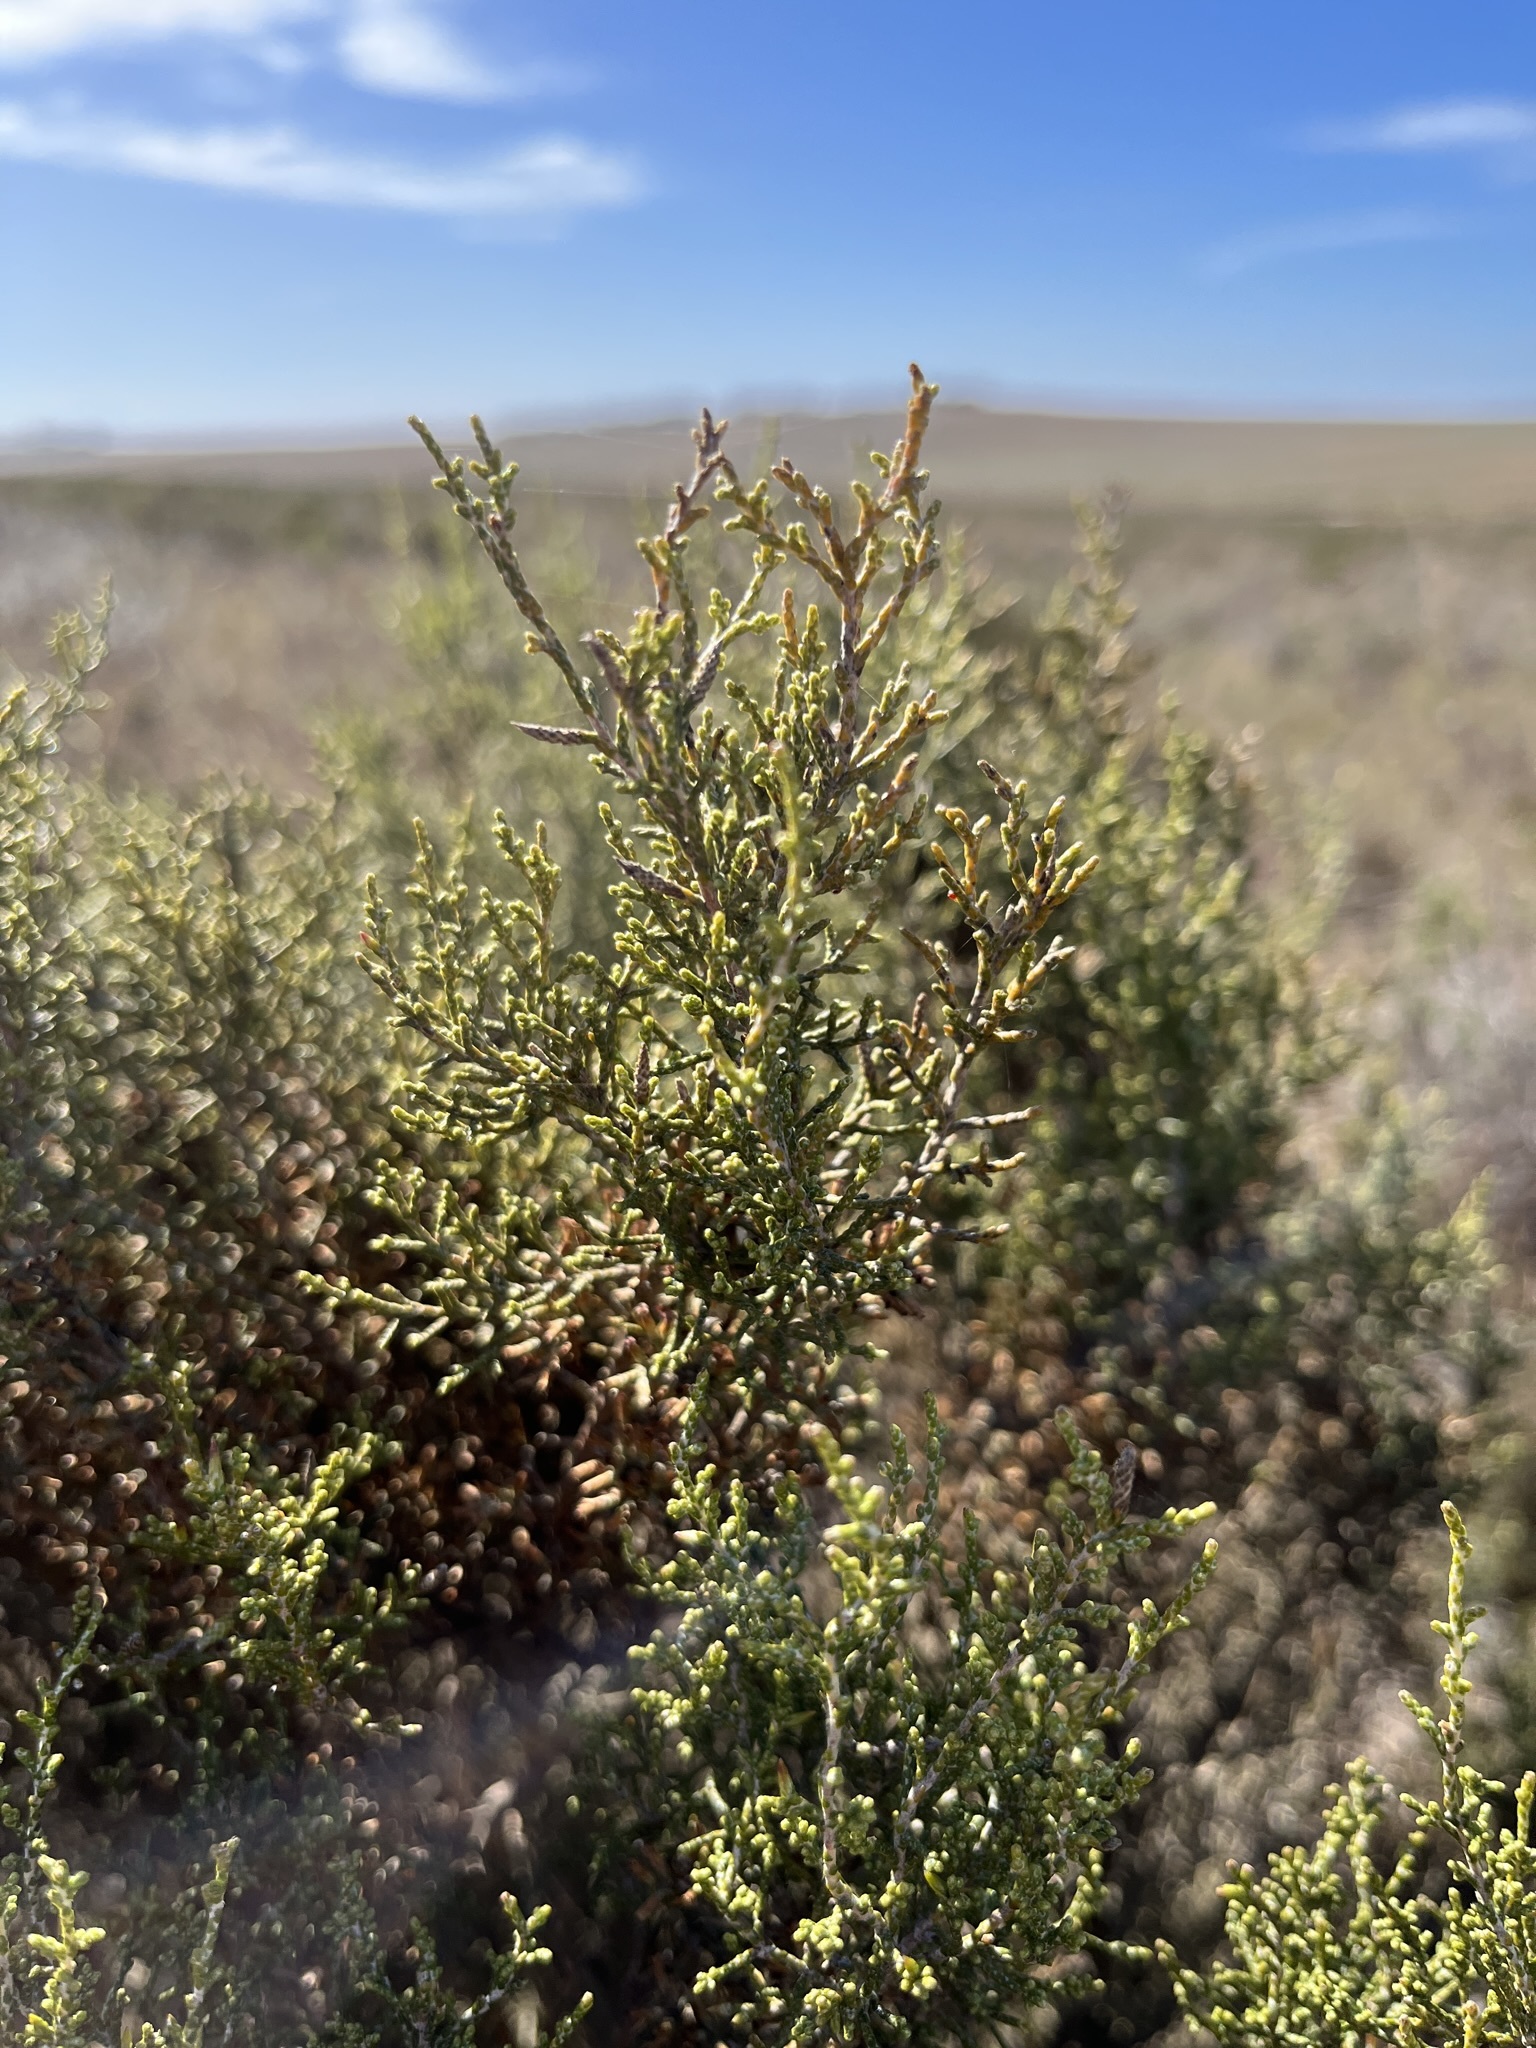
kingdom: Plantae
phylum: Tracheophyta
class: Magnoliopsida
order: Asterales
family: Asteraceae
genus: Dicerothamnus
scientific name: Dicerothamnus rhinocerotis
